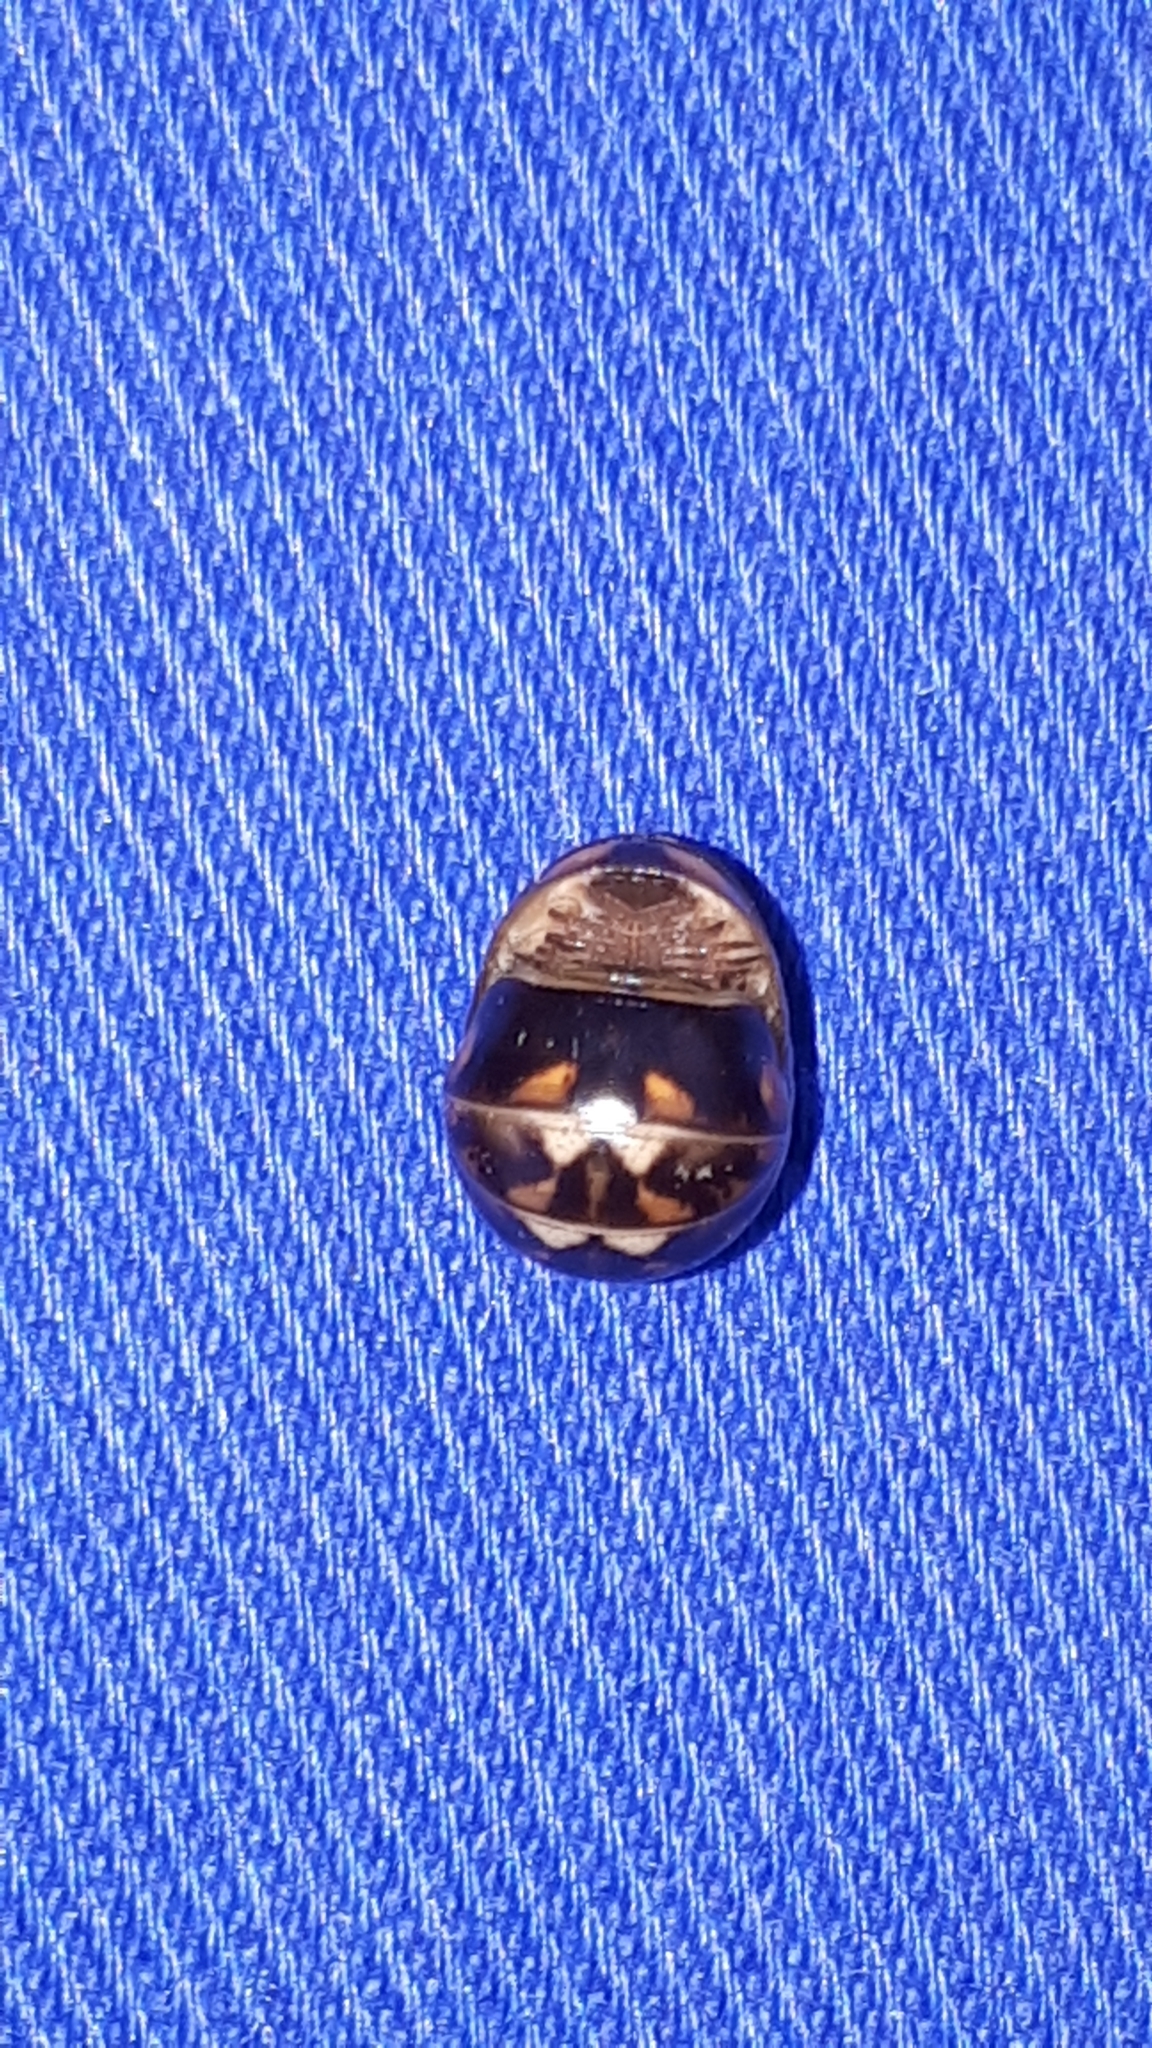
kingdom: Animalia
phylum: Arthropoda
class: Diplopoda
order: Glomerida
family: Glomeridae
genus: Glomeris
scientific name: Glomeris hexasticha
